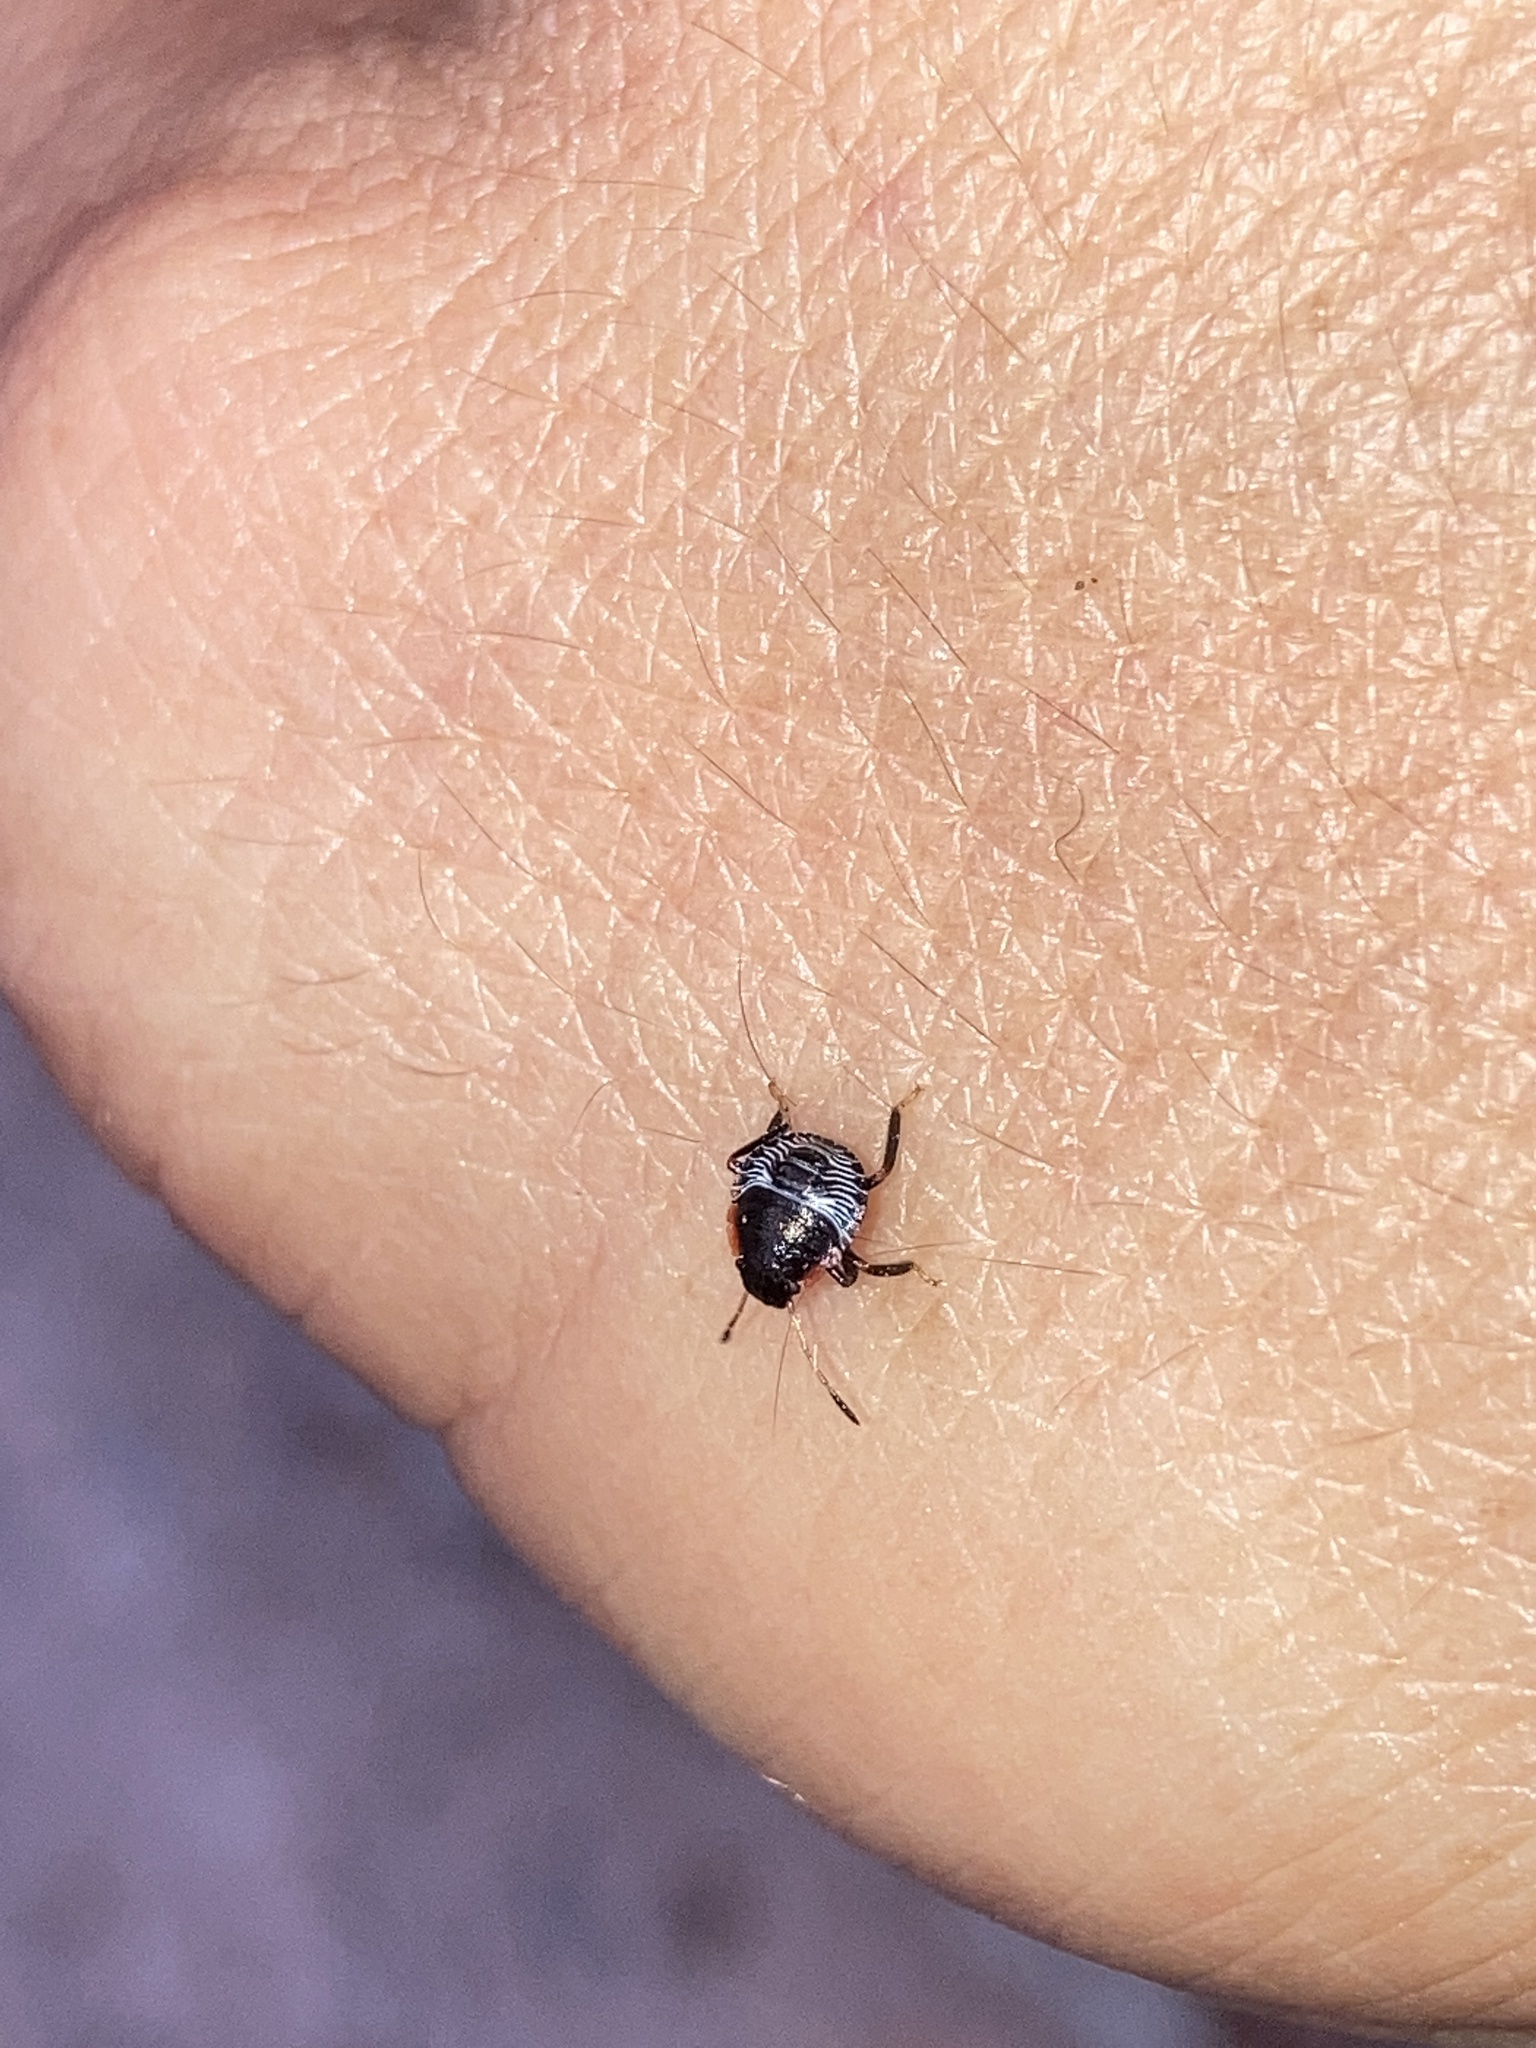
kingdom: Animalia
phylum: Arthropoda
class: Insecta
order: Hemiptera
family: Pentatomidae
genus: Chinavia
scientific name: Chinavia hilaris
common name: Green stink bug
